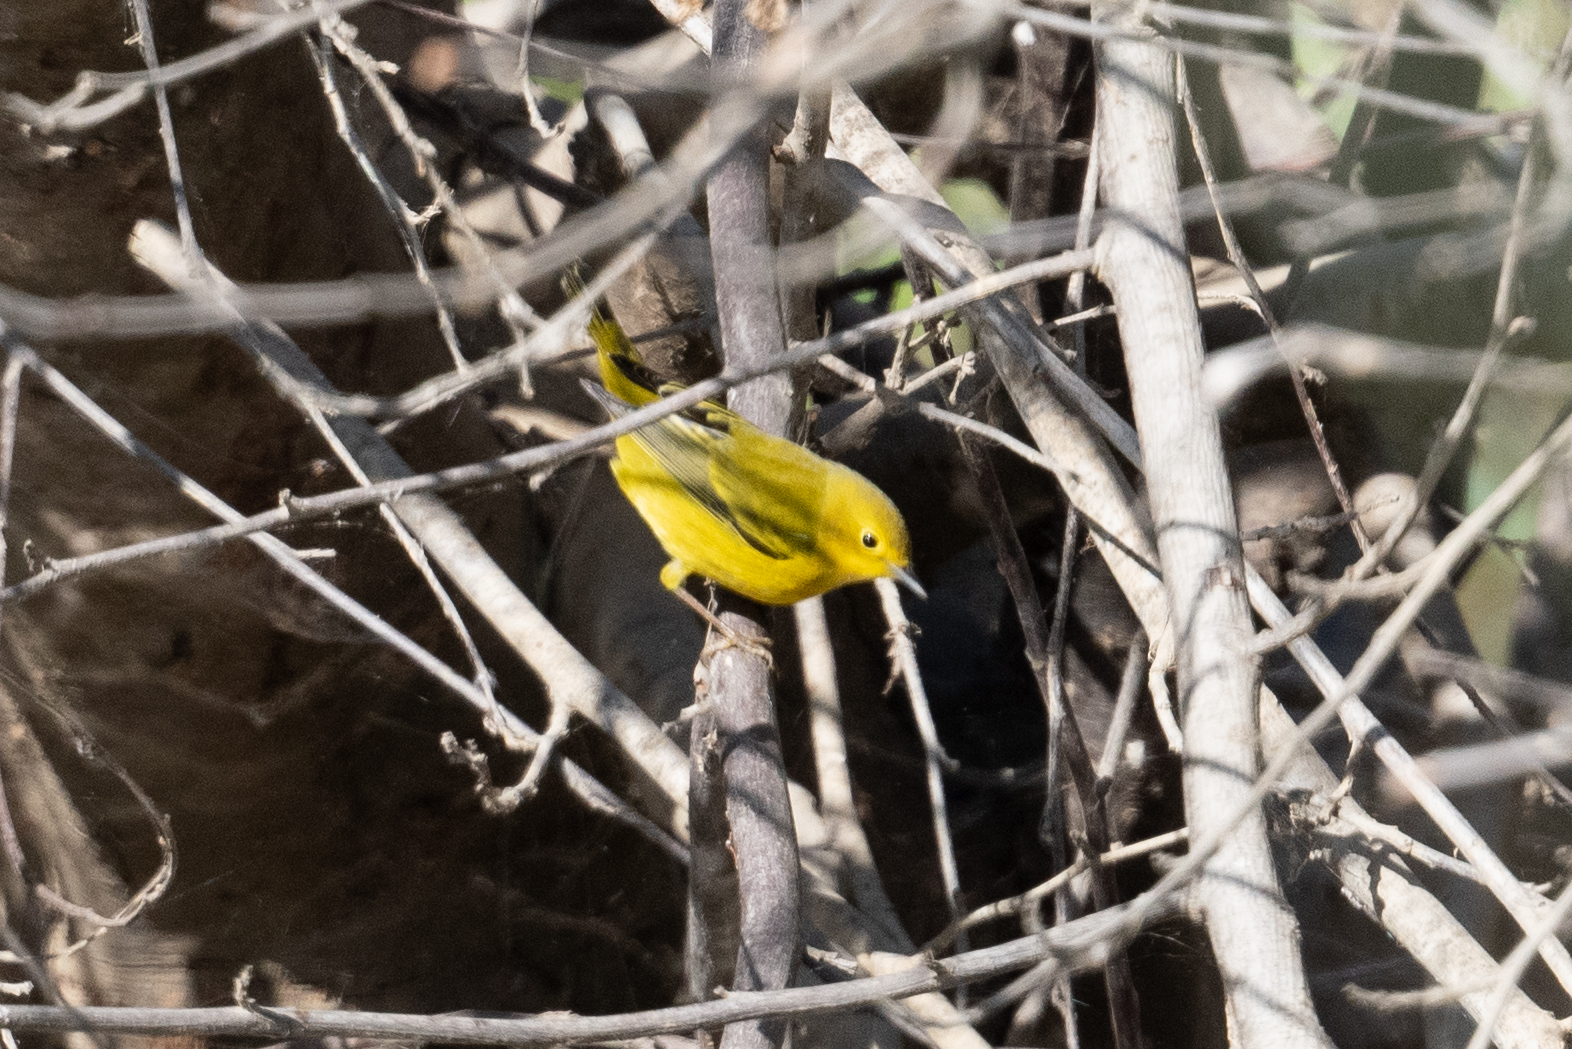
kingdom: Animalia
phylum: Chordata
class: Aves
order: Passeriformes
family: Parulidae
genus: Setophaga
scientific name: Setophaga petechia
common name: Yellow warbler
